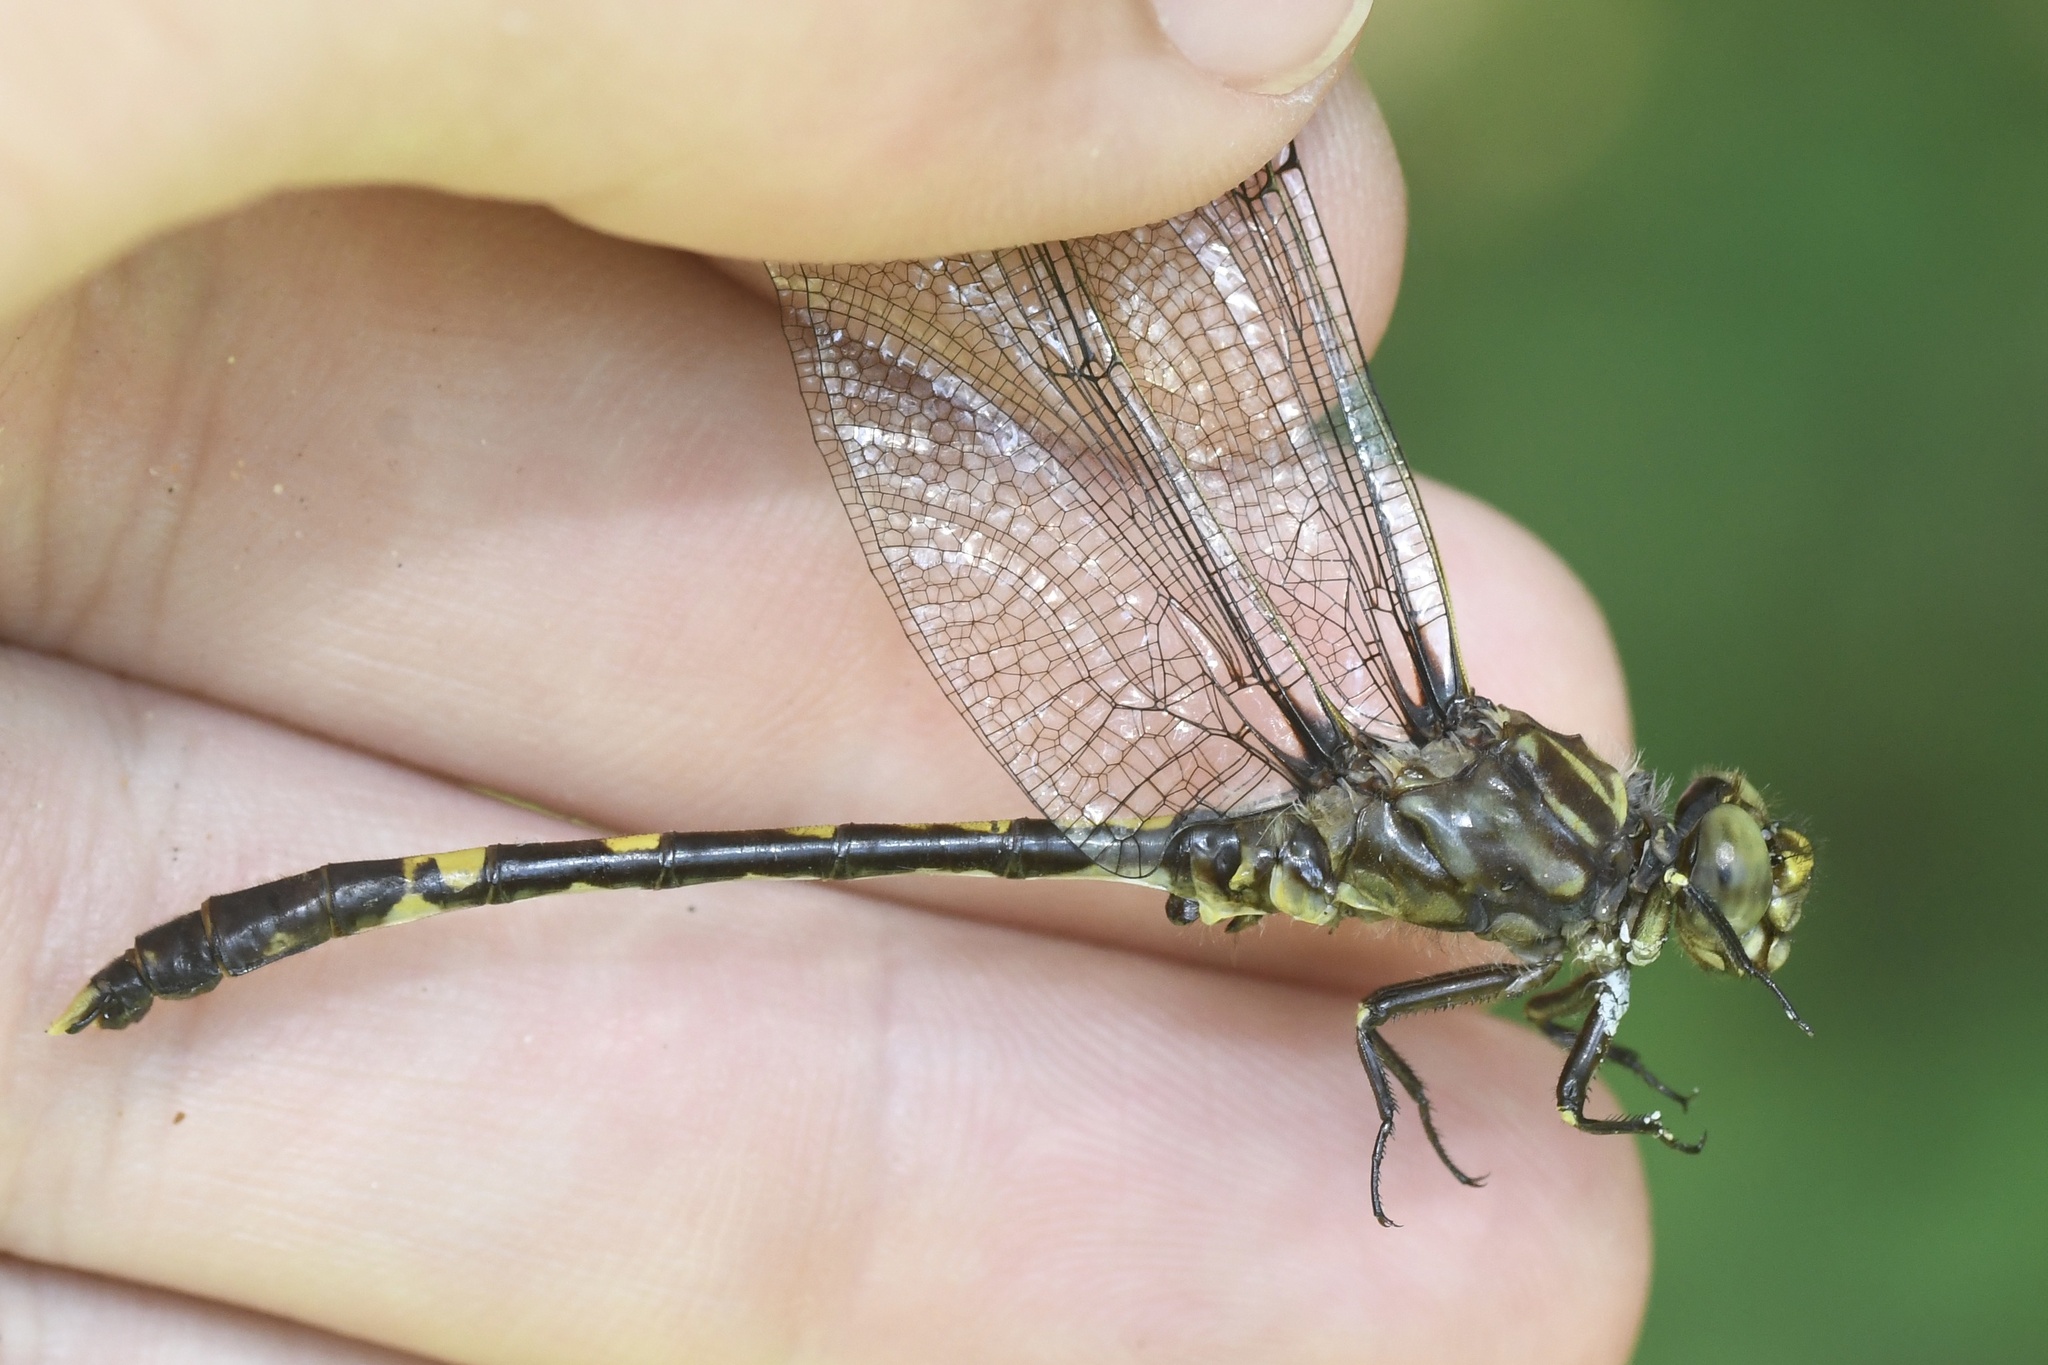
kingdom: Animalia
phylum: Arthropoda
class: Insecta
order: Odonata
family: Gomphidae
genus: Progomphus
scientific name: Progomphus obscurus
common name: Common sanddragon
